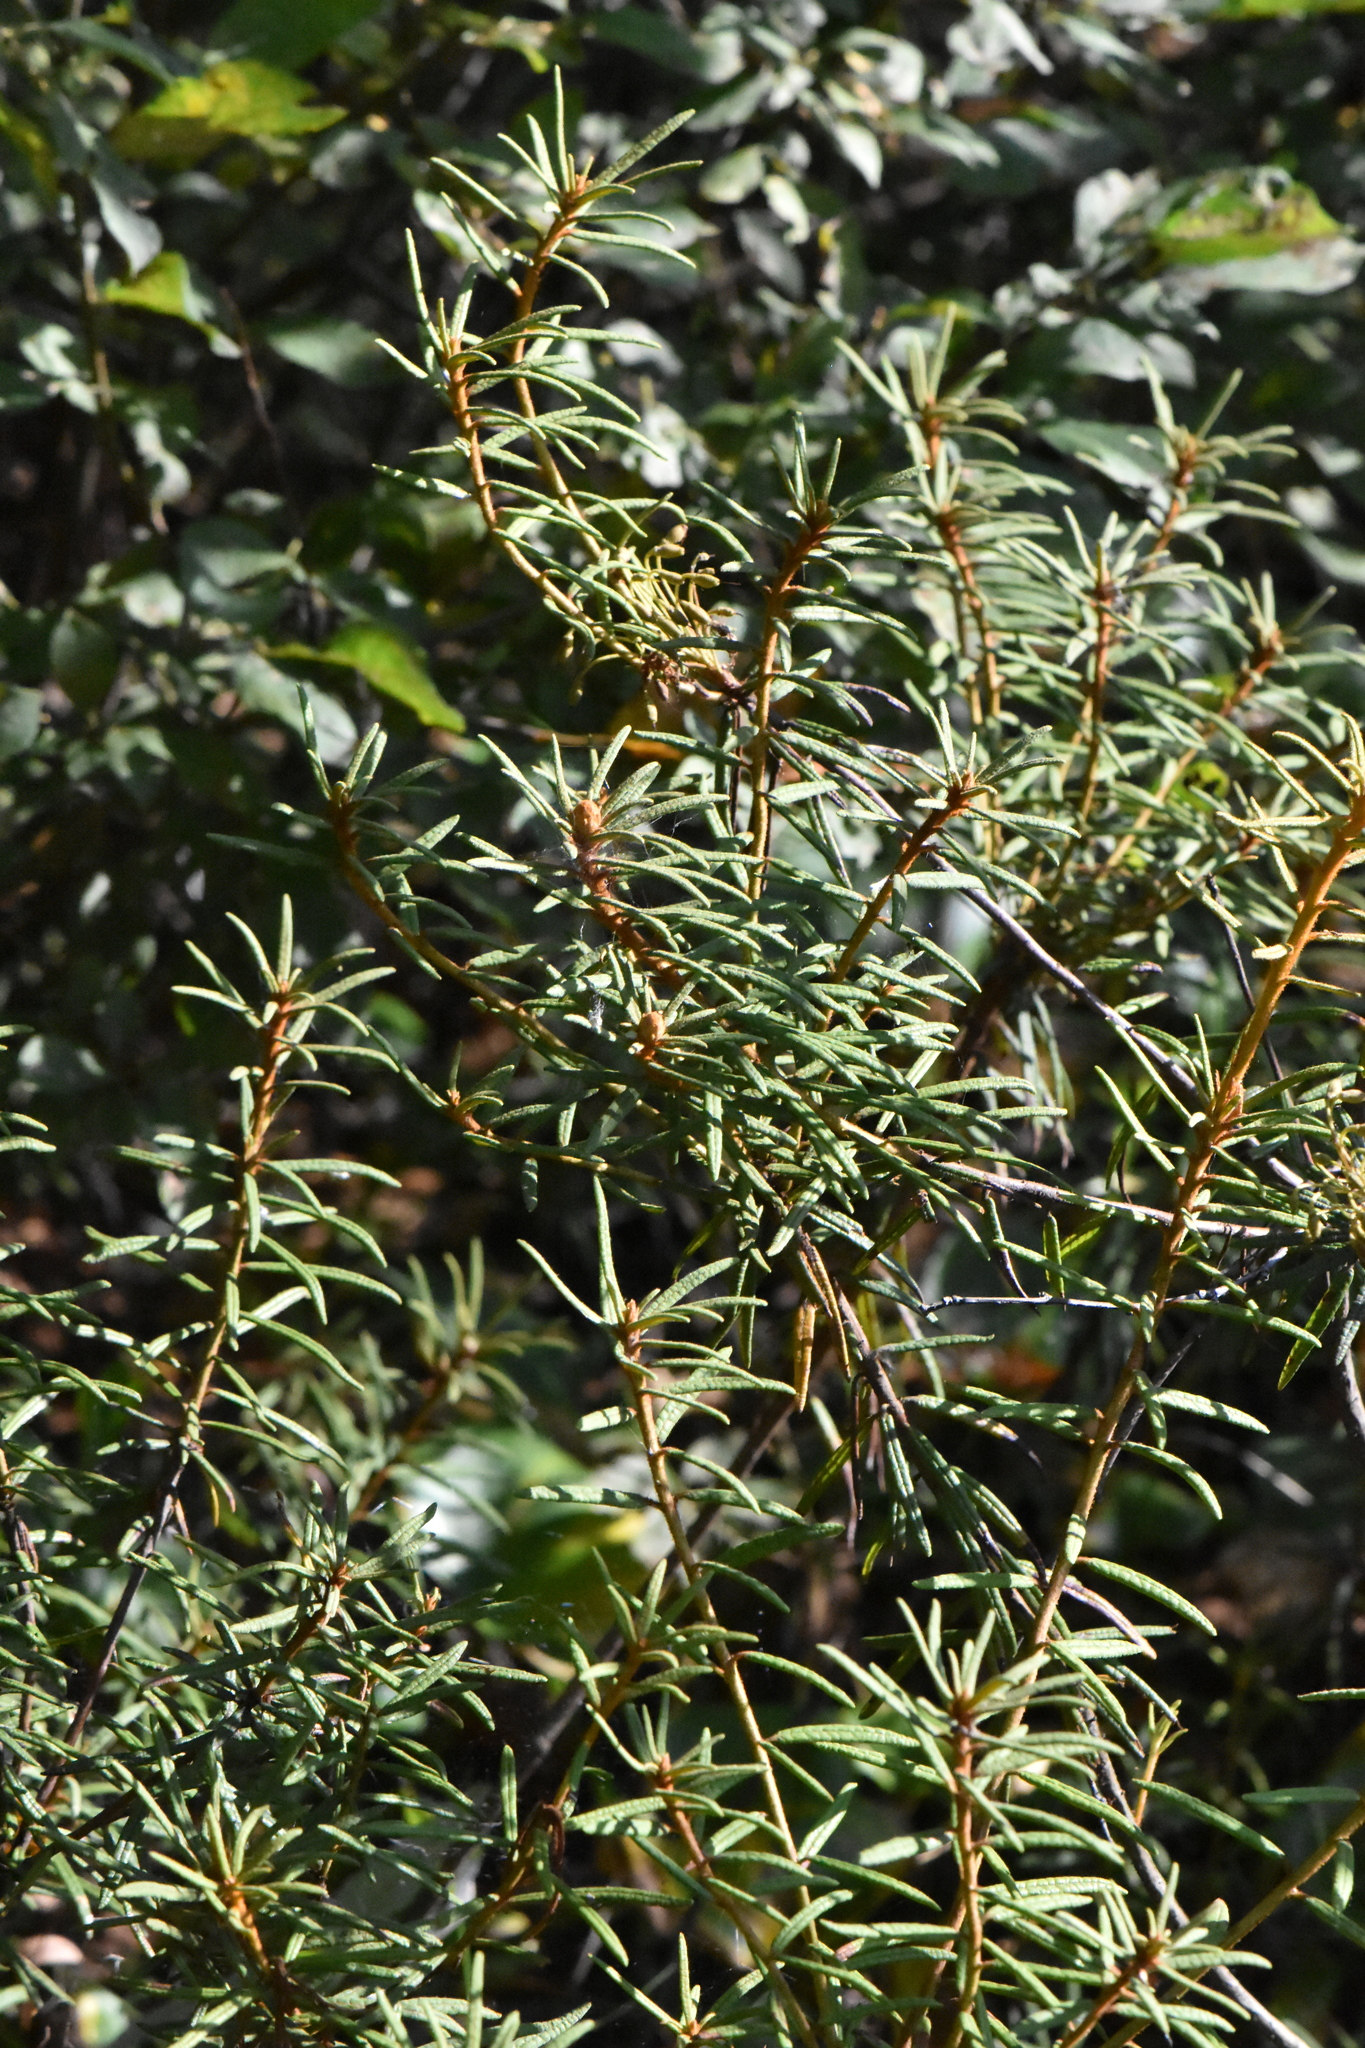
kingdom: Plantae
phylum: Tracheophyta
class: Magnoliopsida
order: Ericales
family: Ericaceae
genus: Rhododendron
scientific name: Rhododendron tomentosum
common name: Marsh labrador tea
